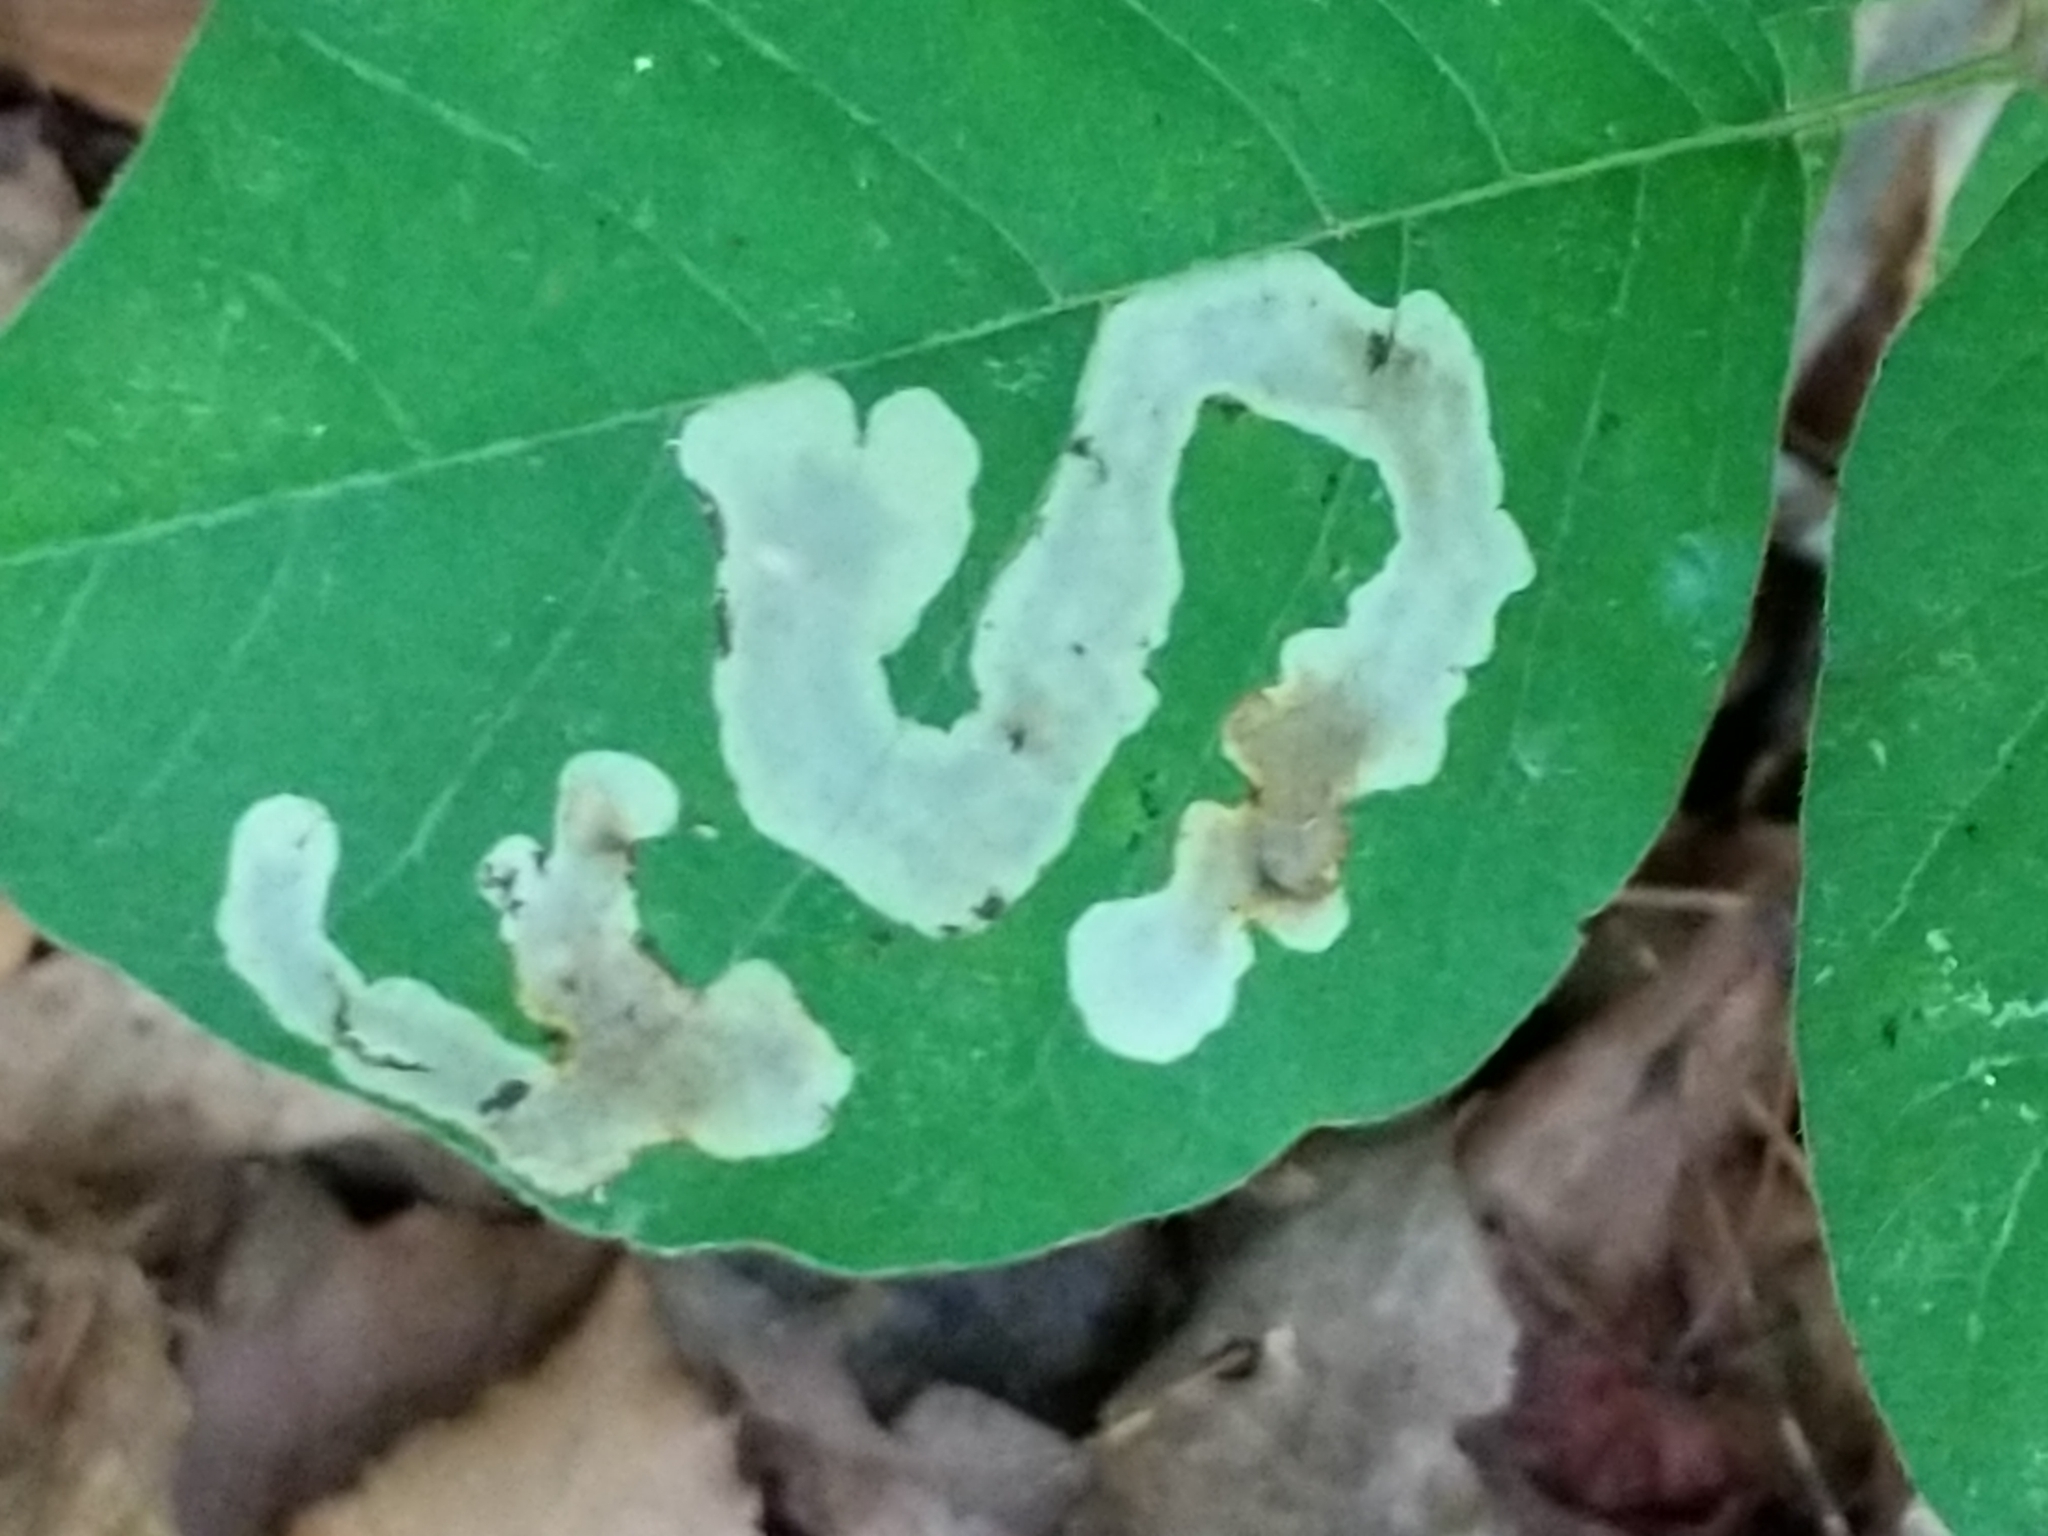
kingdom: Animalia
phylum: Arthropoda
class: Insecta
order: Lepidoptera
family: Gracillariidae
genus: Cameraria
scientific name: Cameraria guttifinitella
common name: Poison ivy leaf-miner moth
